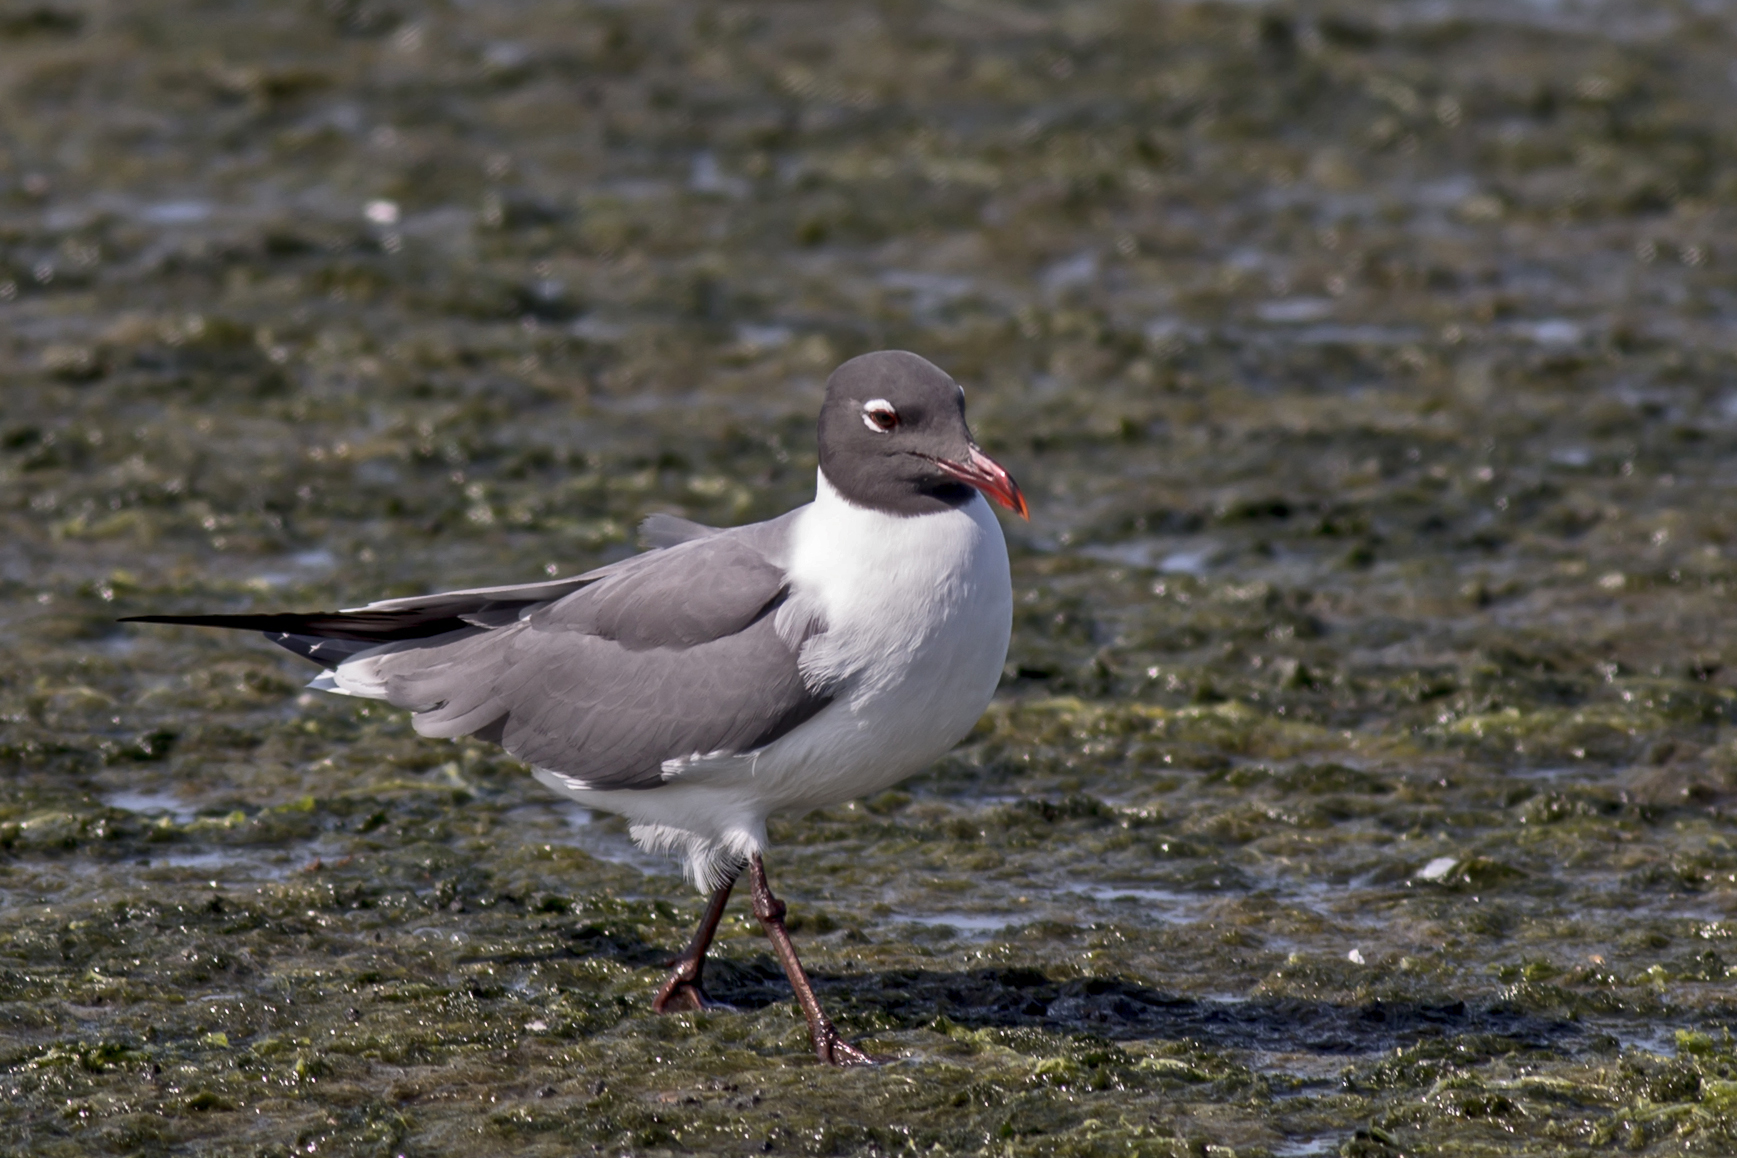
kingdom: Animalia
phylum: Chordata
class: Aves
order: Charadriiformes
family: Laridae
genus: Leucophaeus
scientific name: Leucophaeus atricilla
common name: Laughing gull
